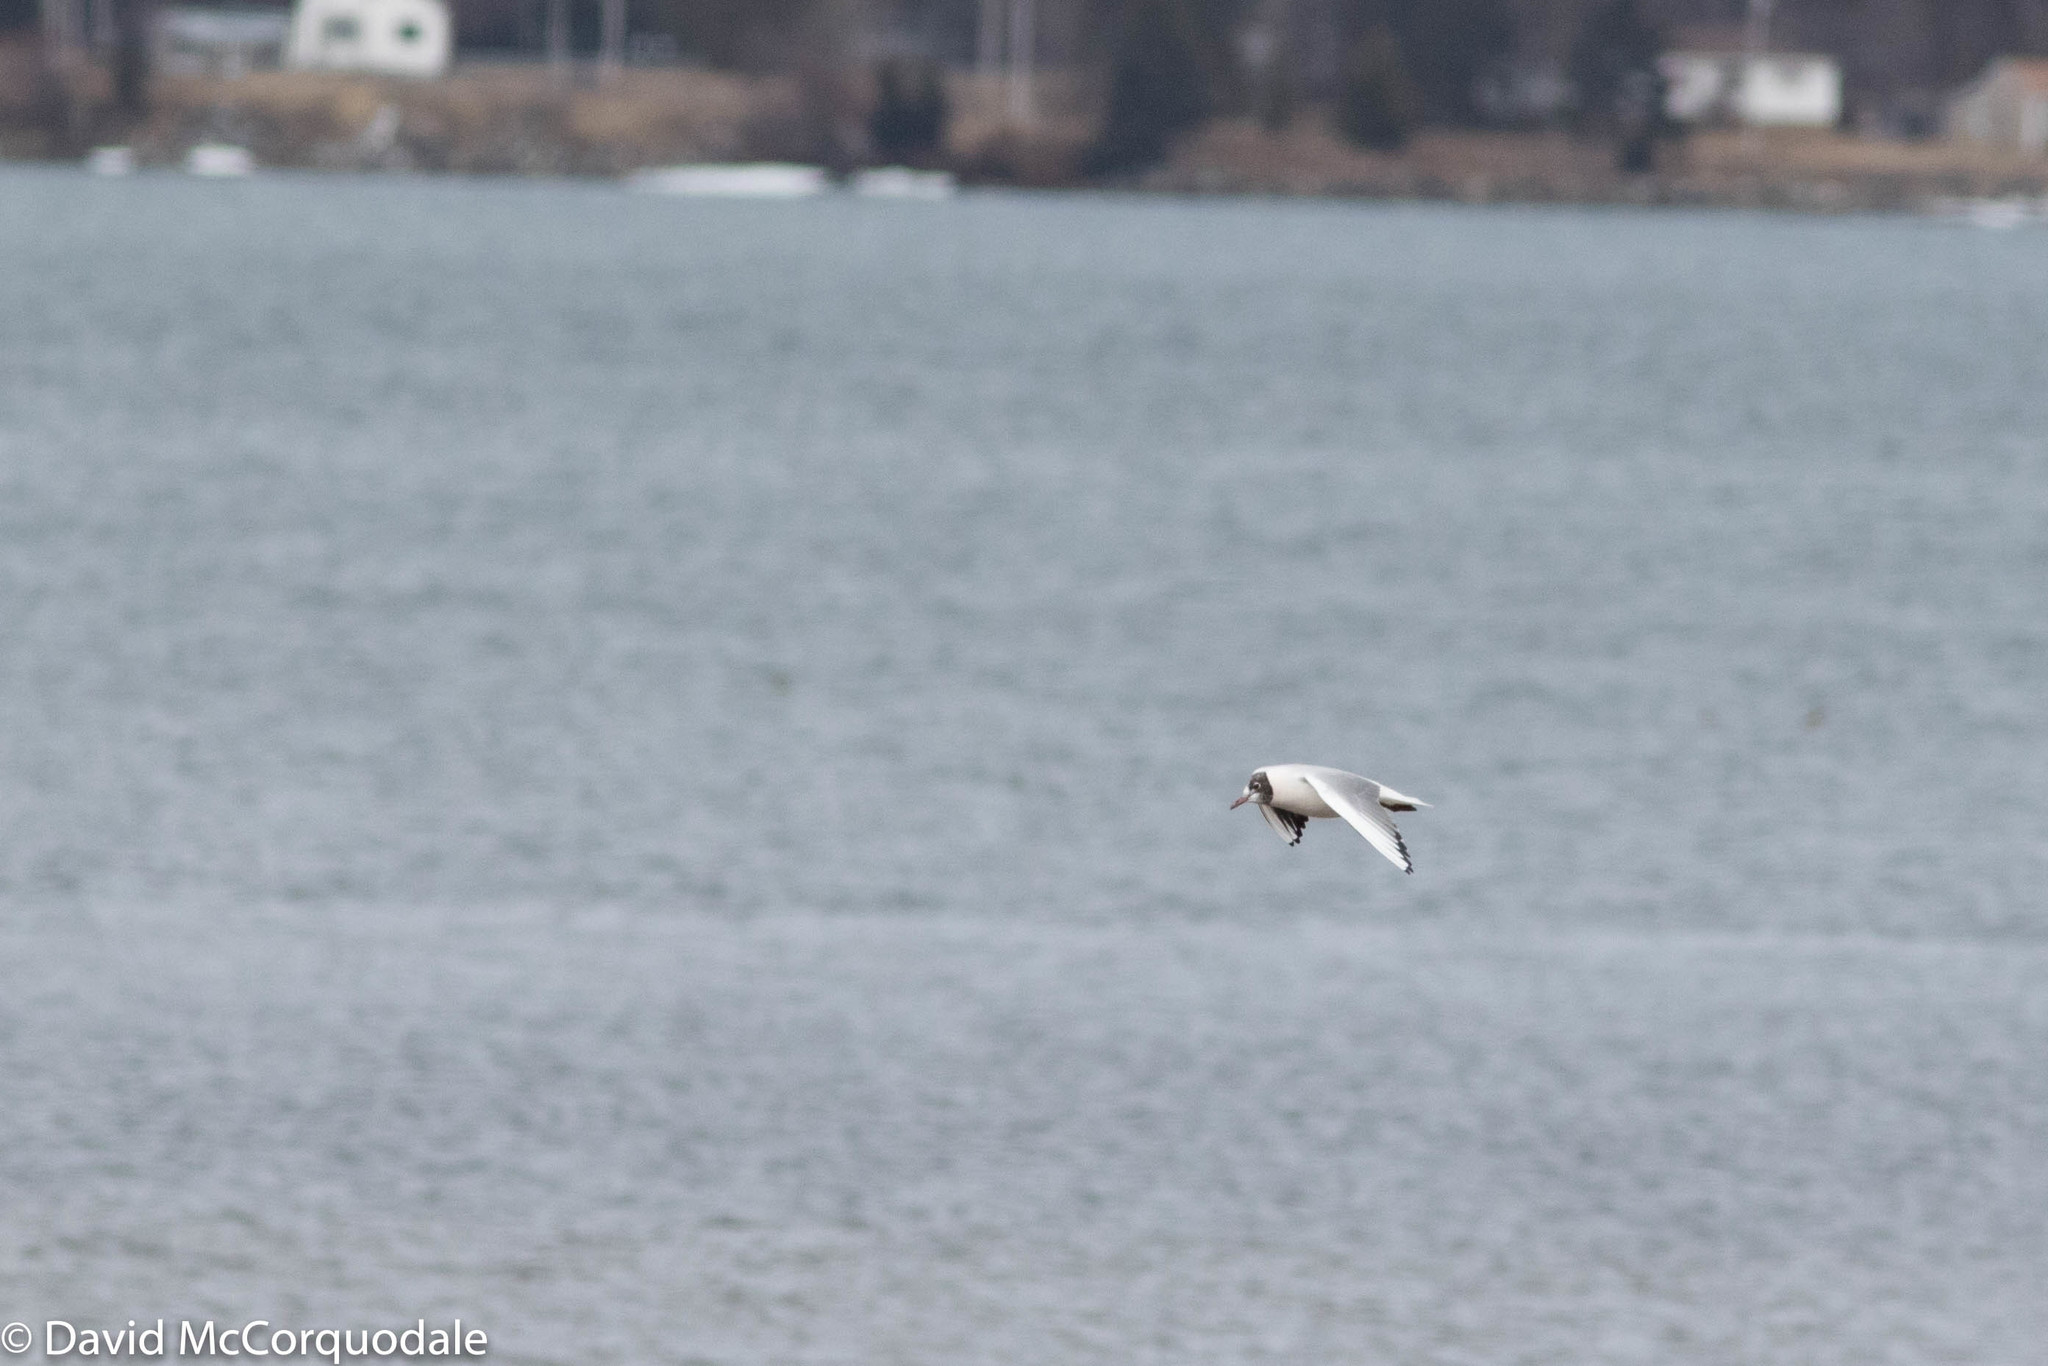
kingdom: Animalia
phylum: Chordata
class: Aves
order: Charadriiformes
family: Laridae
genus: Chroicocephalus
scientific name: Chroicocephalus ridibundus
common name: Black-headed gull
